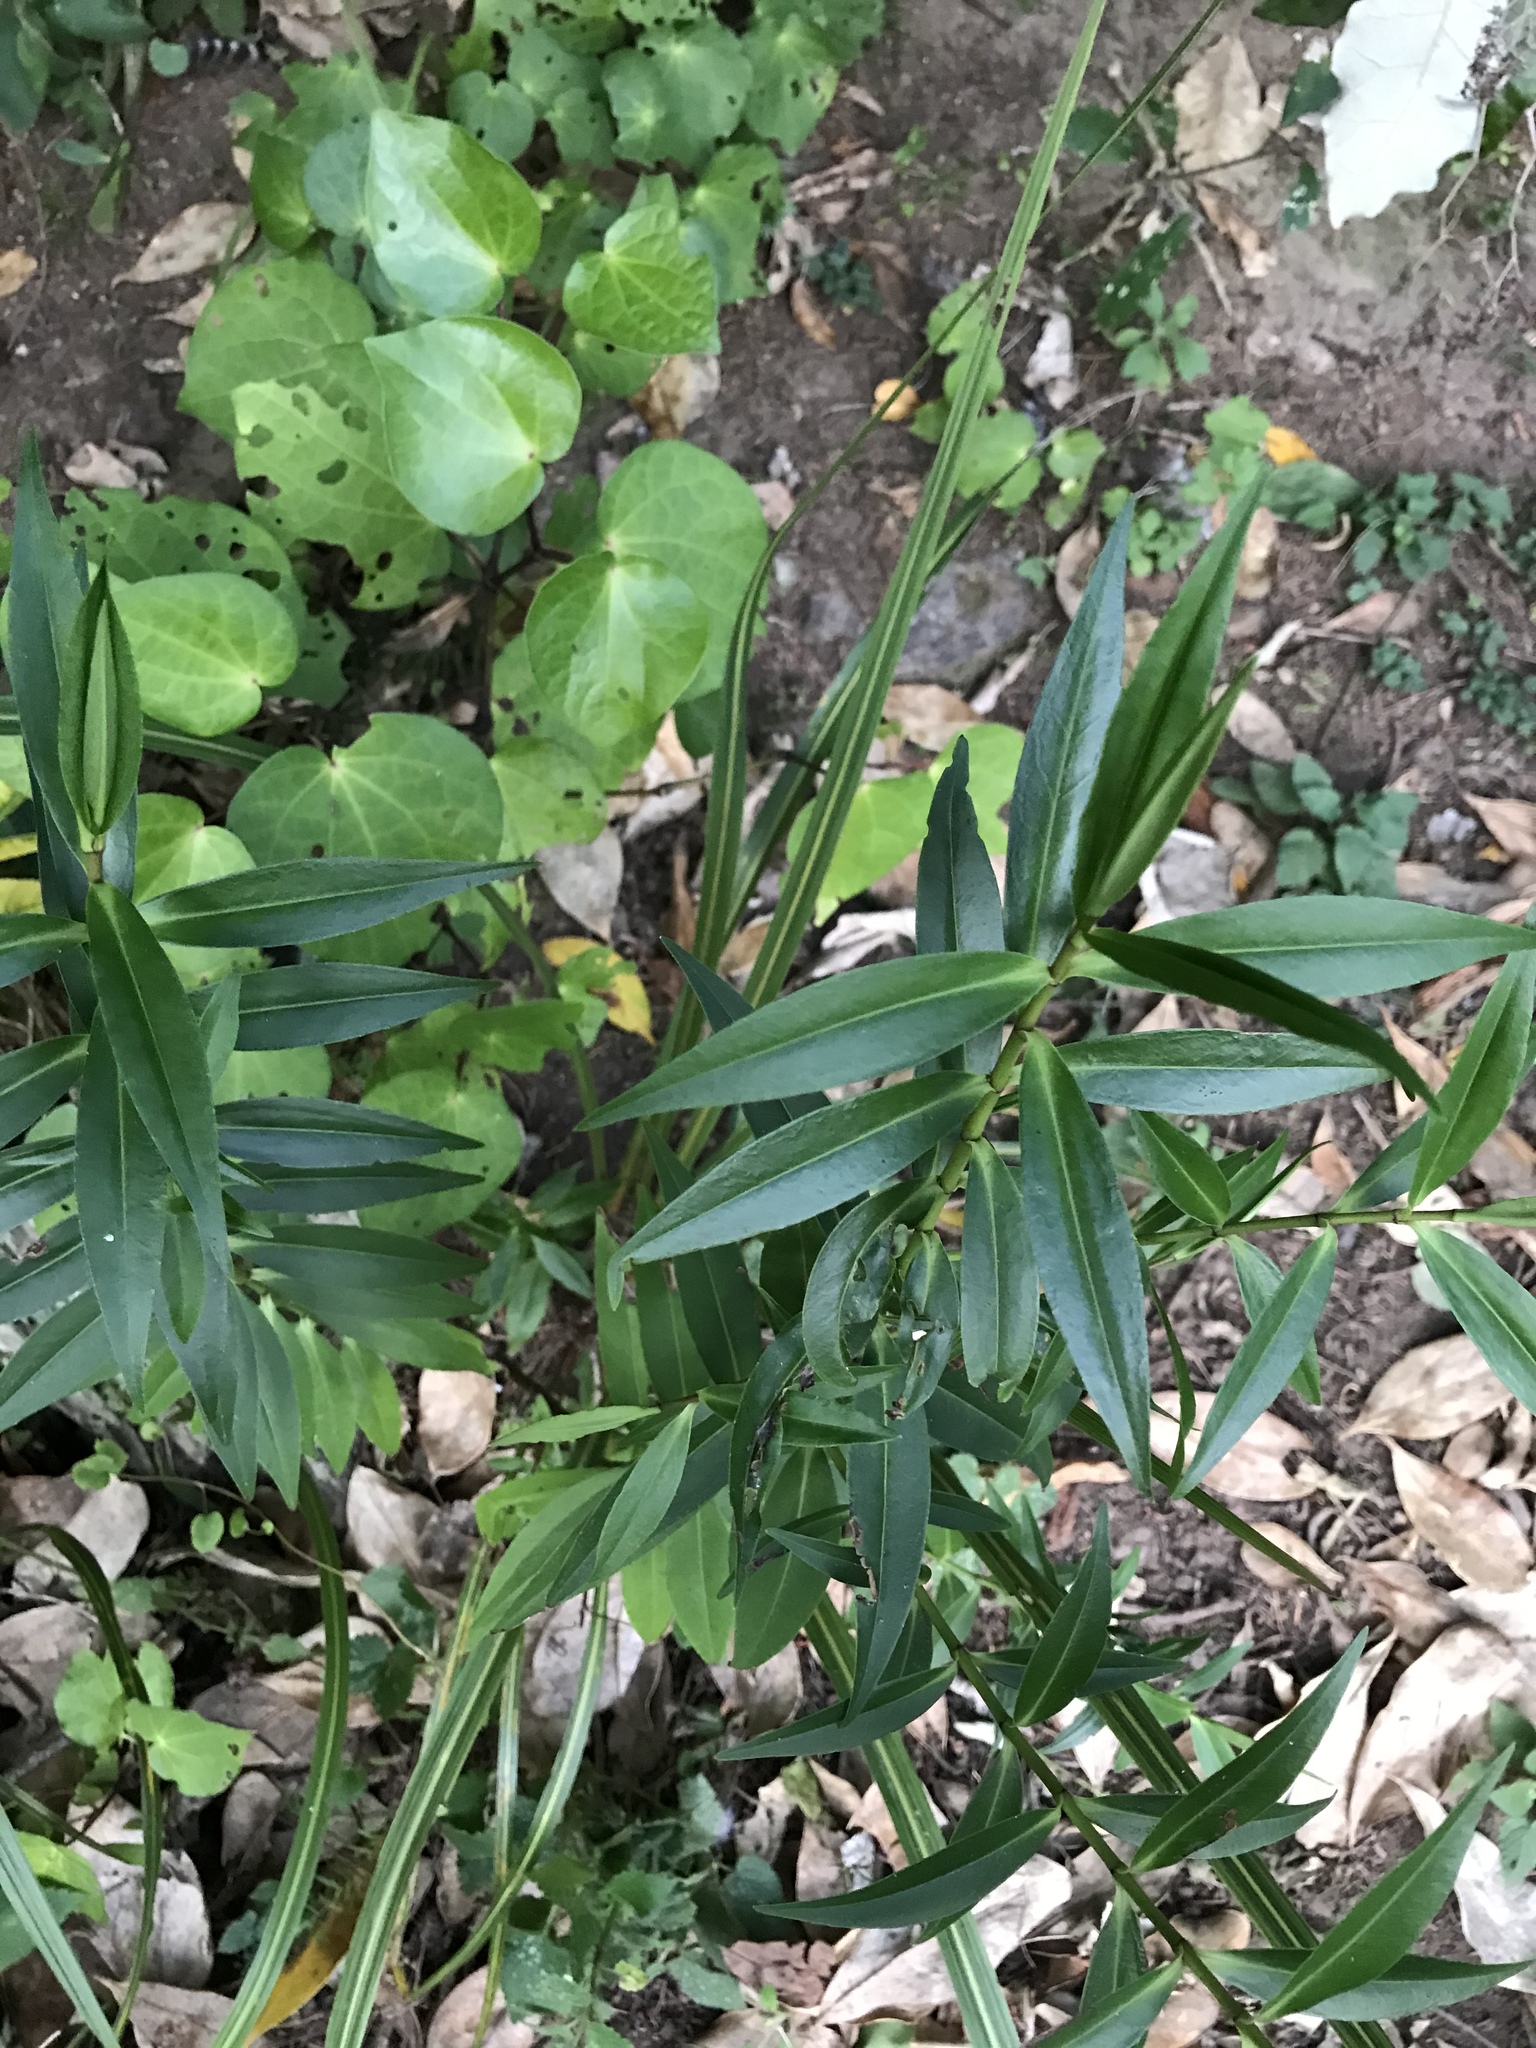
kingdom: Plantae
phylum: Tracheophyta
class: Magnoliopsida
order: Lamiales
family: Plantaginaceae
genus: Veronica
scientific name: Veronica stricta
